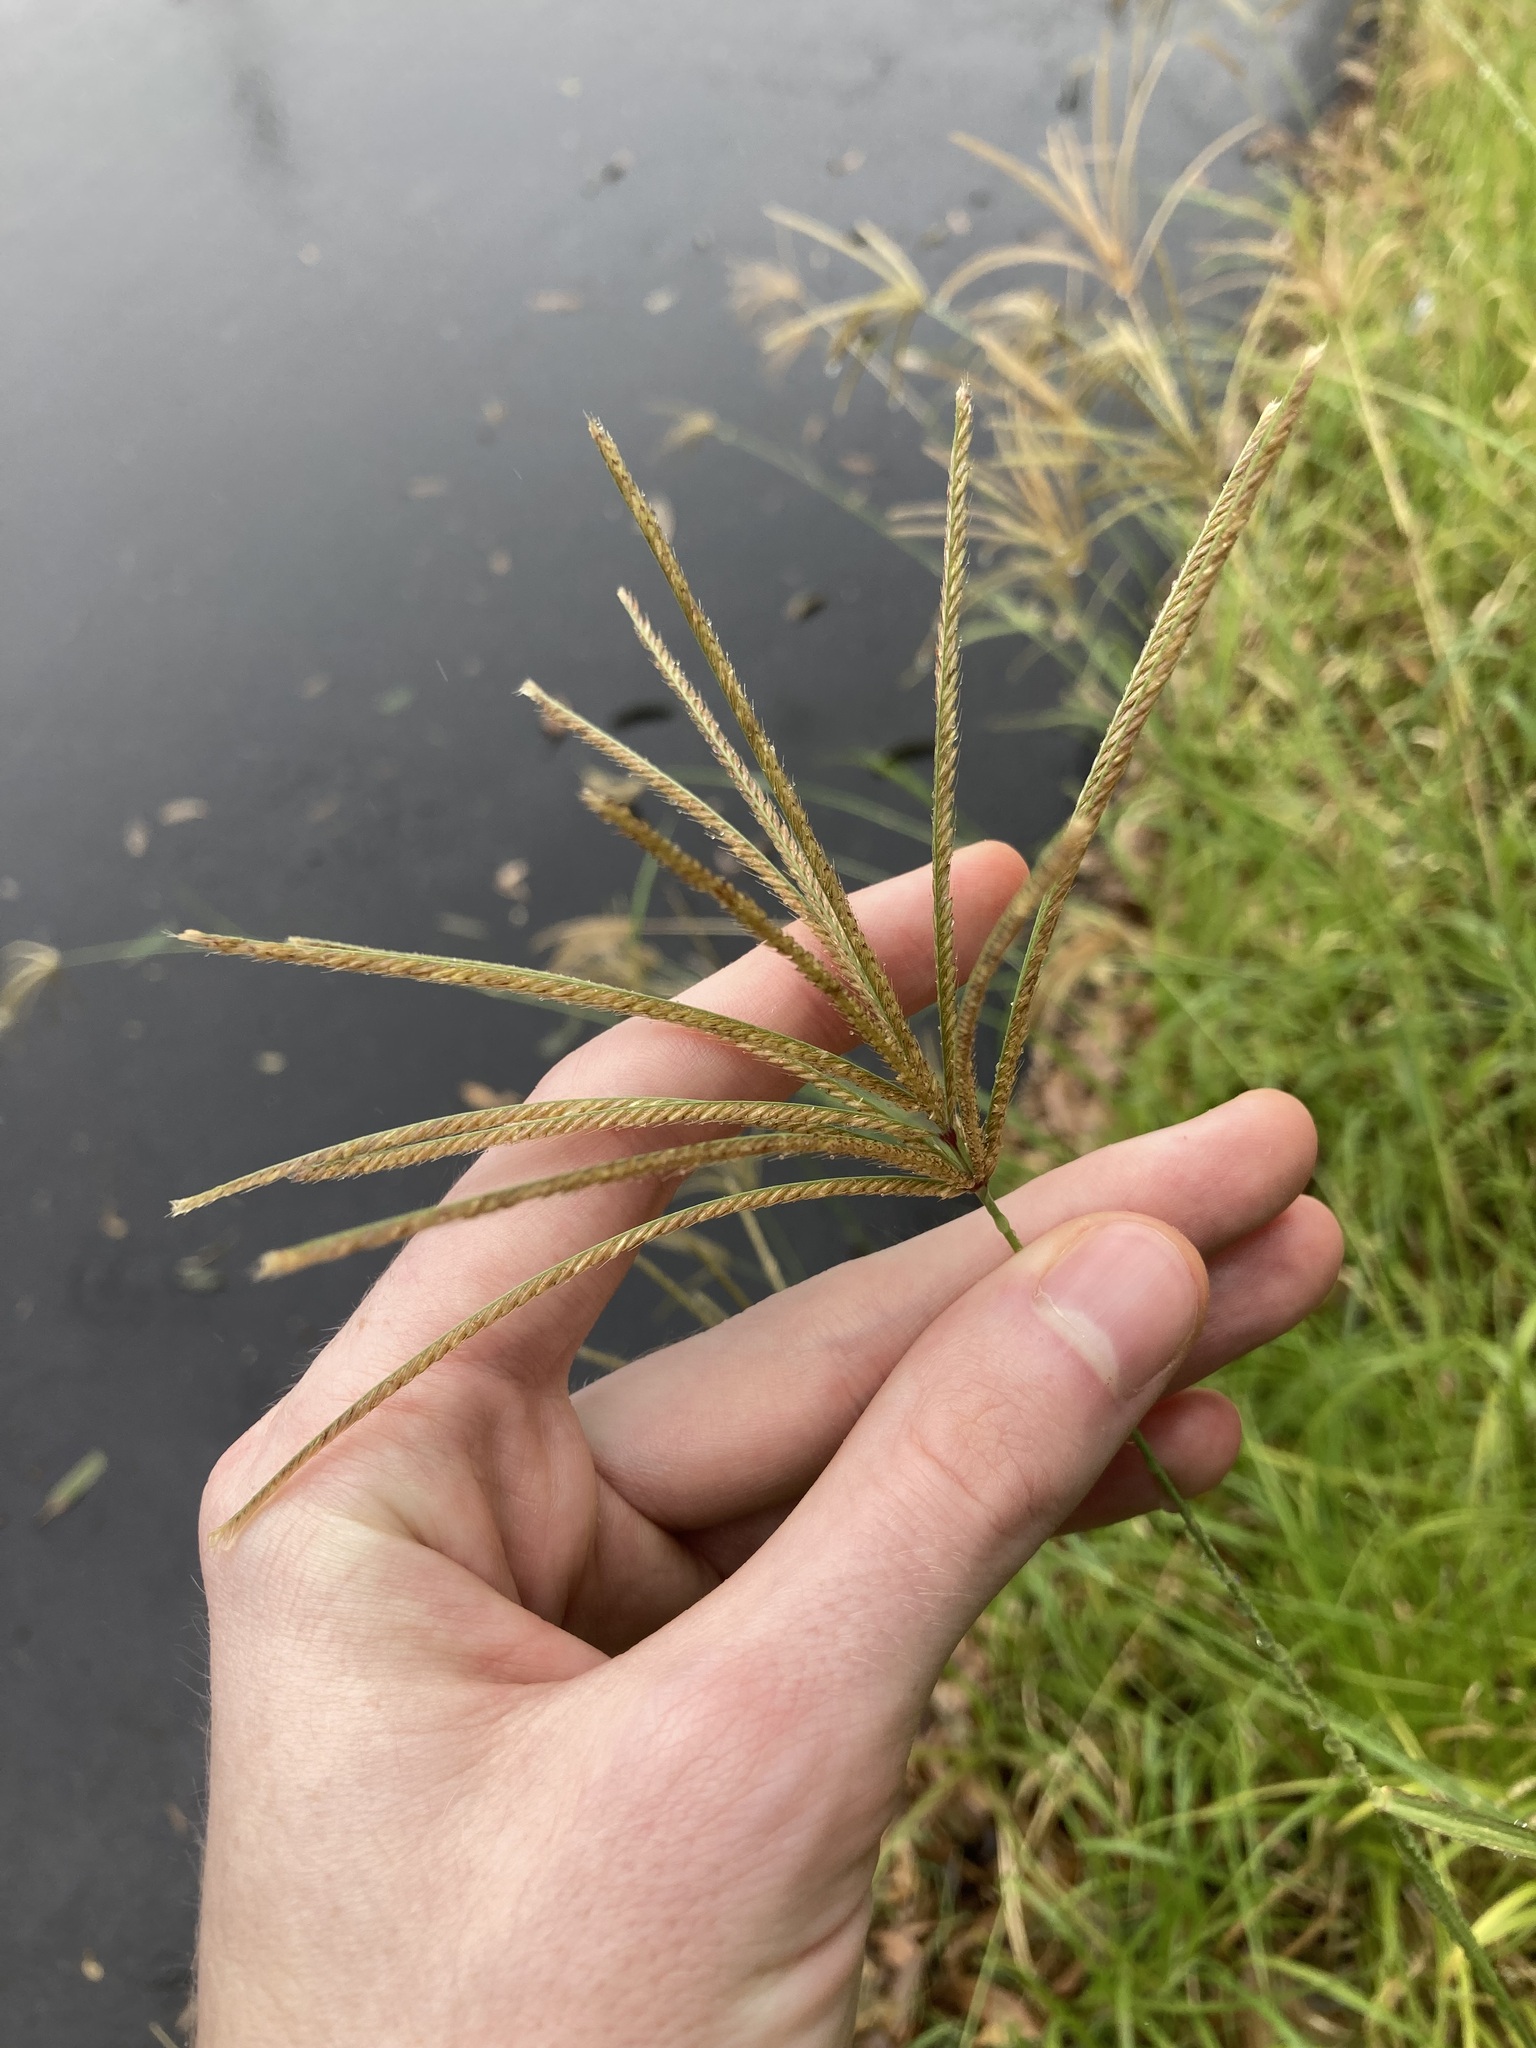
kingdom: Plantae
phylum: Tracheophyta
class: Liliopsida
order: Poales
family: Poaceae
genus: Chloris
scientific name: Chloris gayana
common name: Rhodes grass
